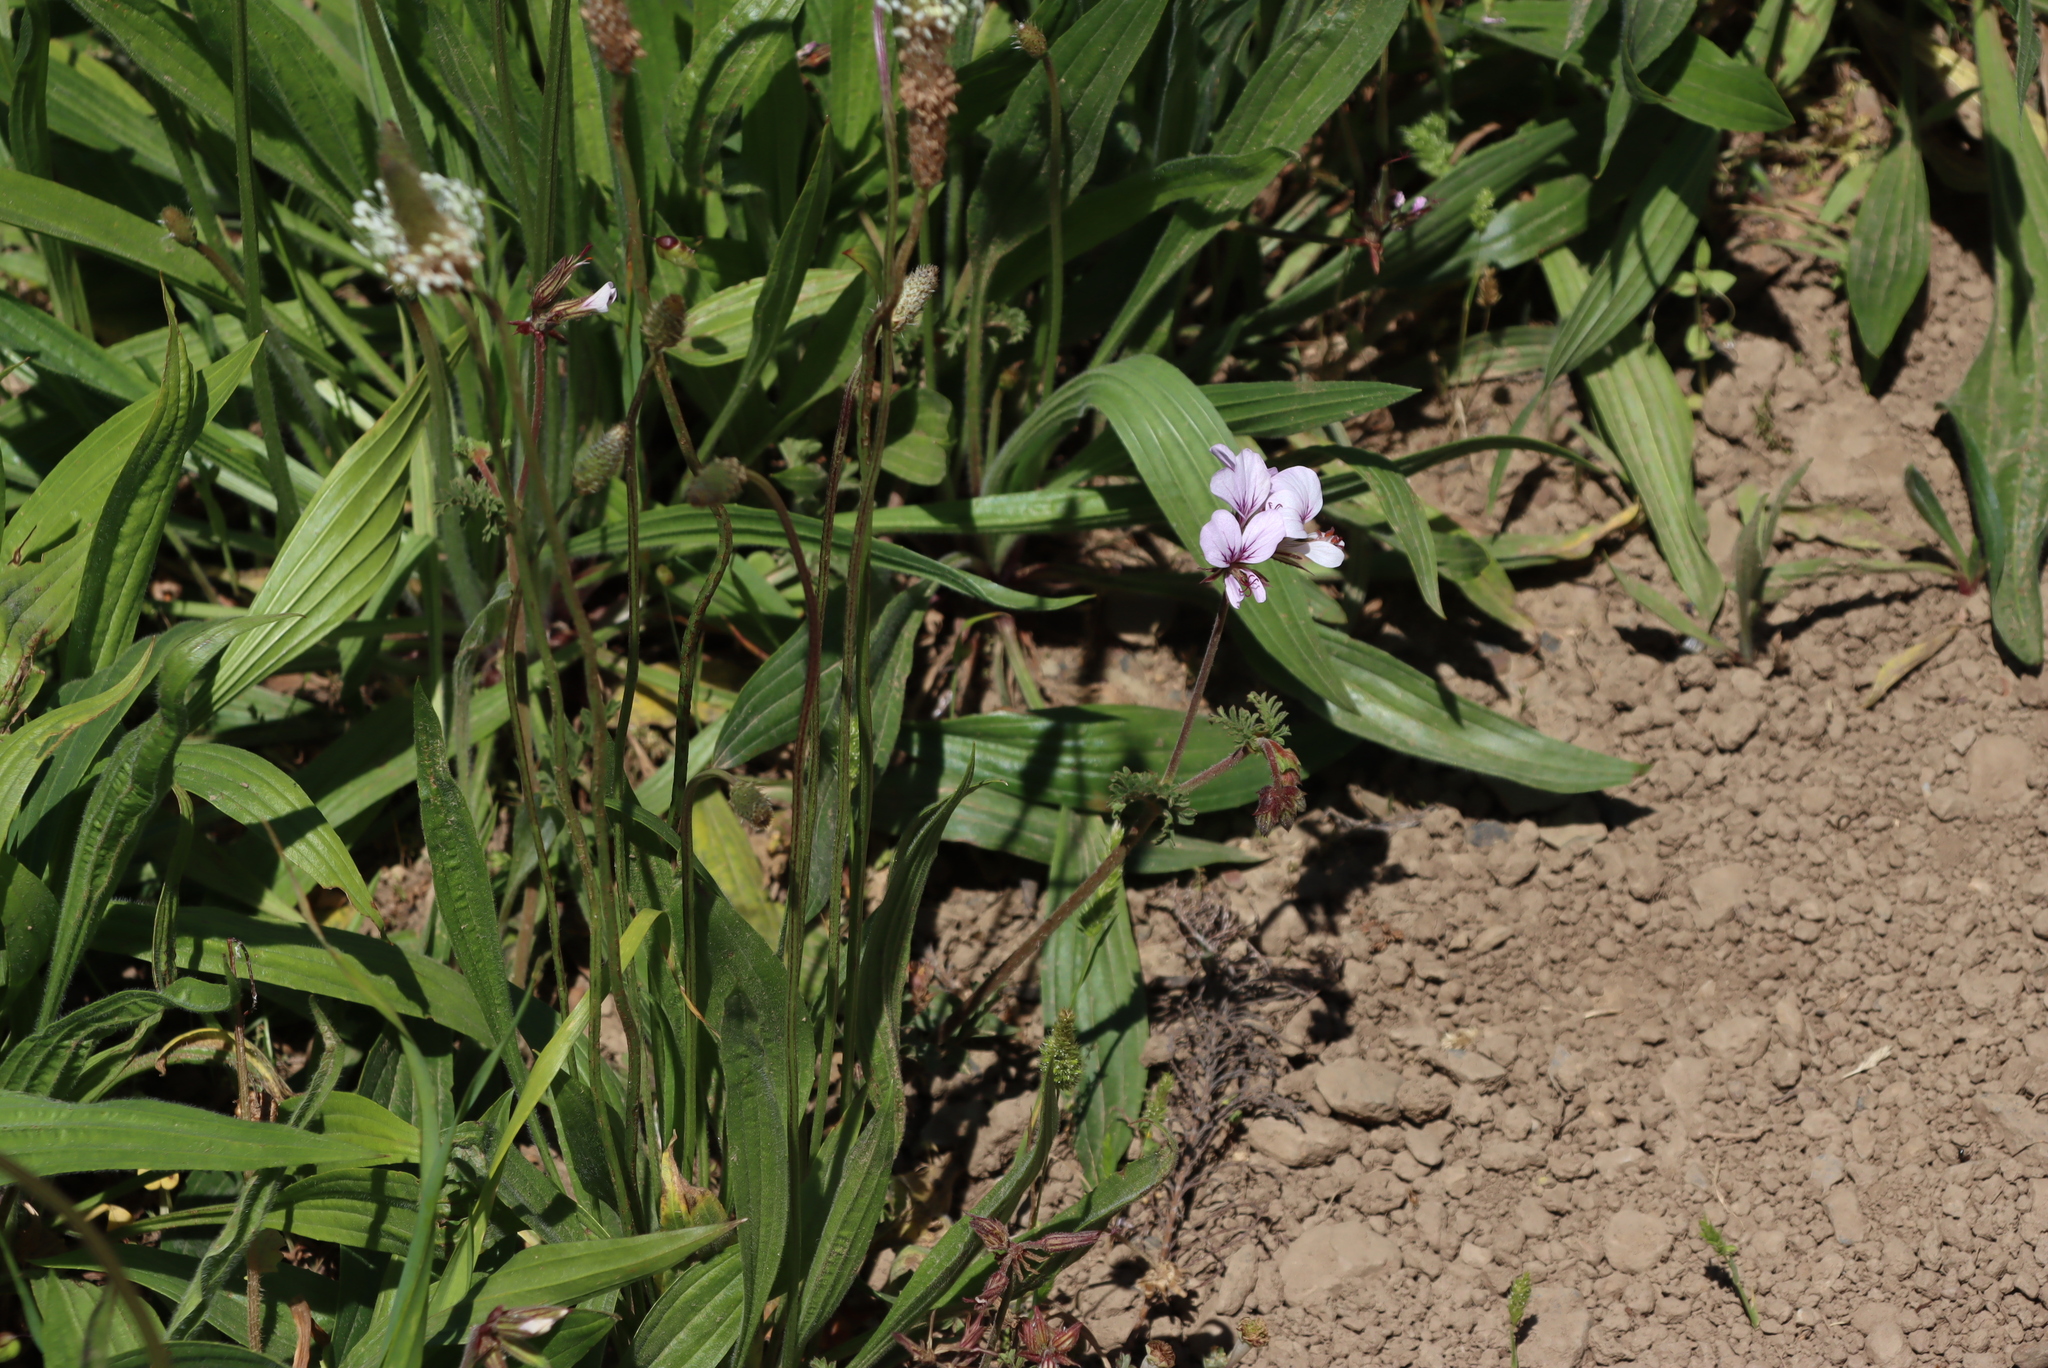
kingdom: Plantae
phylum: Tracheophyta
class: Magnoliopsida
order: Lamiales
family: Plantaginaceae
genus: Plantago
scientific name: Plantago lanceolata
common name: Ribwort plantain
